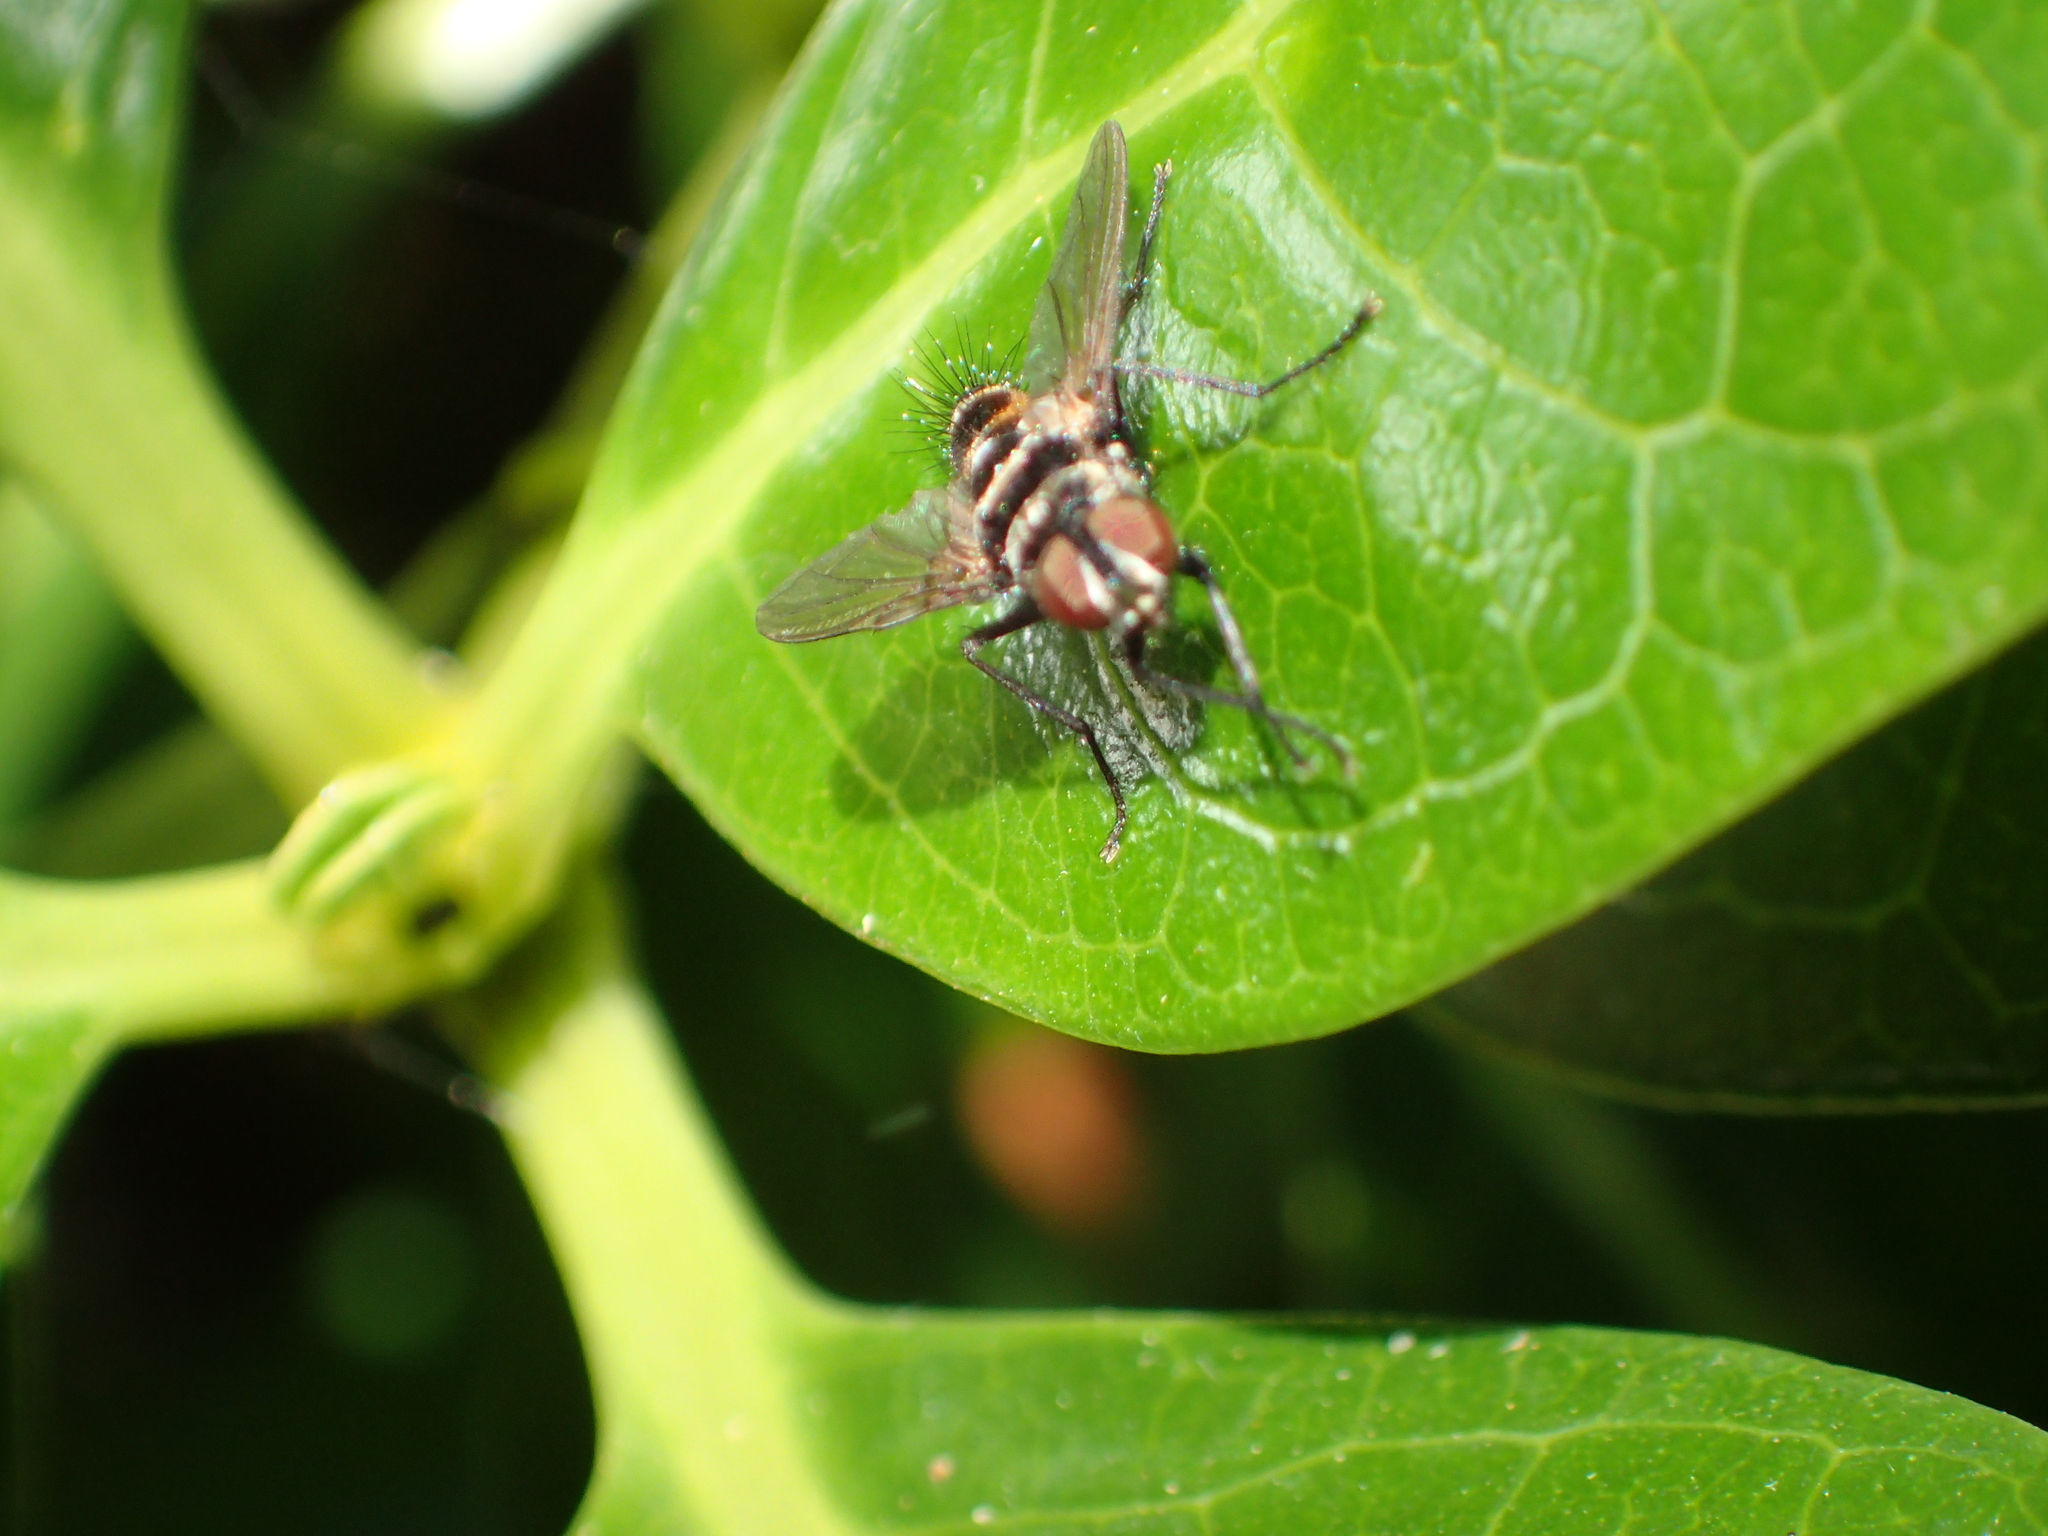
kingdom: Animalia
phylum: Arthropoda
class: Insecta
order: Diptera
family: Tachinidae
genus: Trigonospila
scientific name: Trigonospila brevifacies
